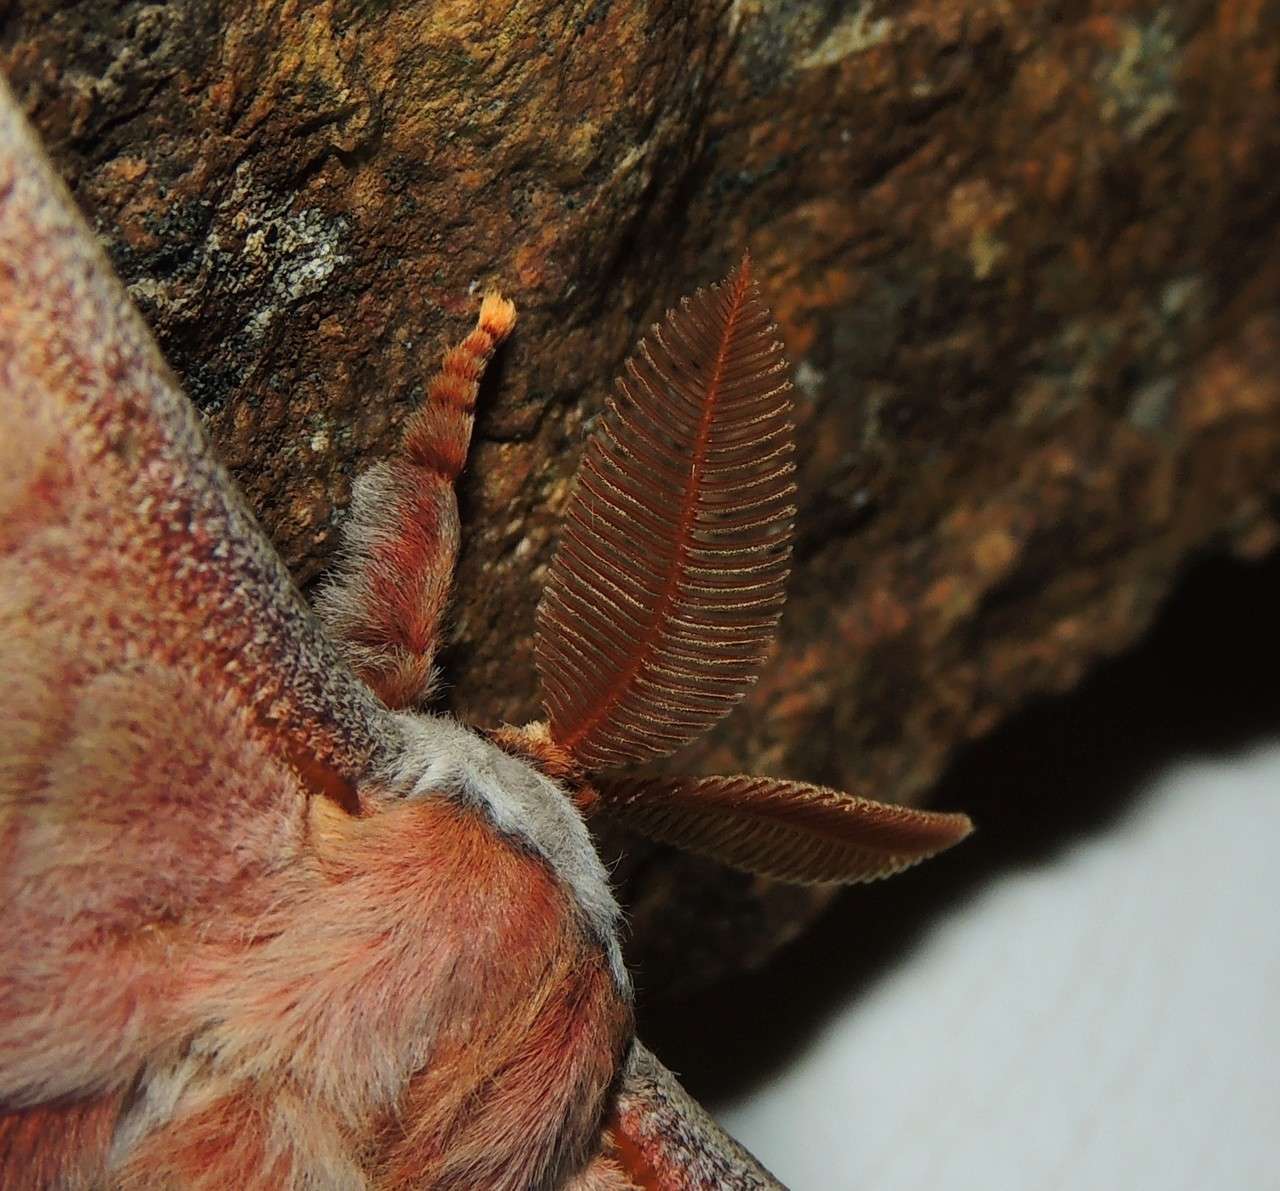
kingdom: Animalia
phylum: Arthropoda
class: Insecta
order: Lepidoptera
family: Saturniidae
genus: Opodiphthera
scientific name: Opodiphthera
